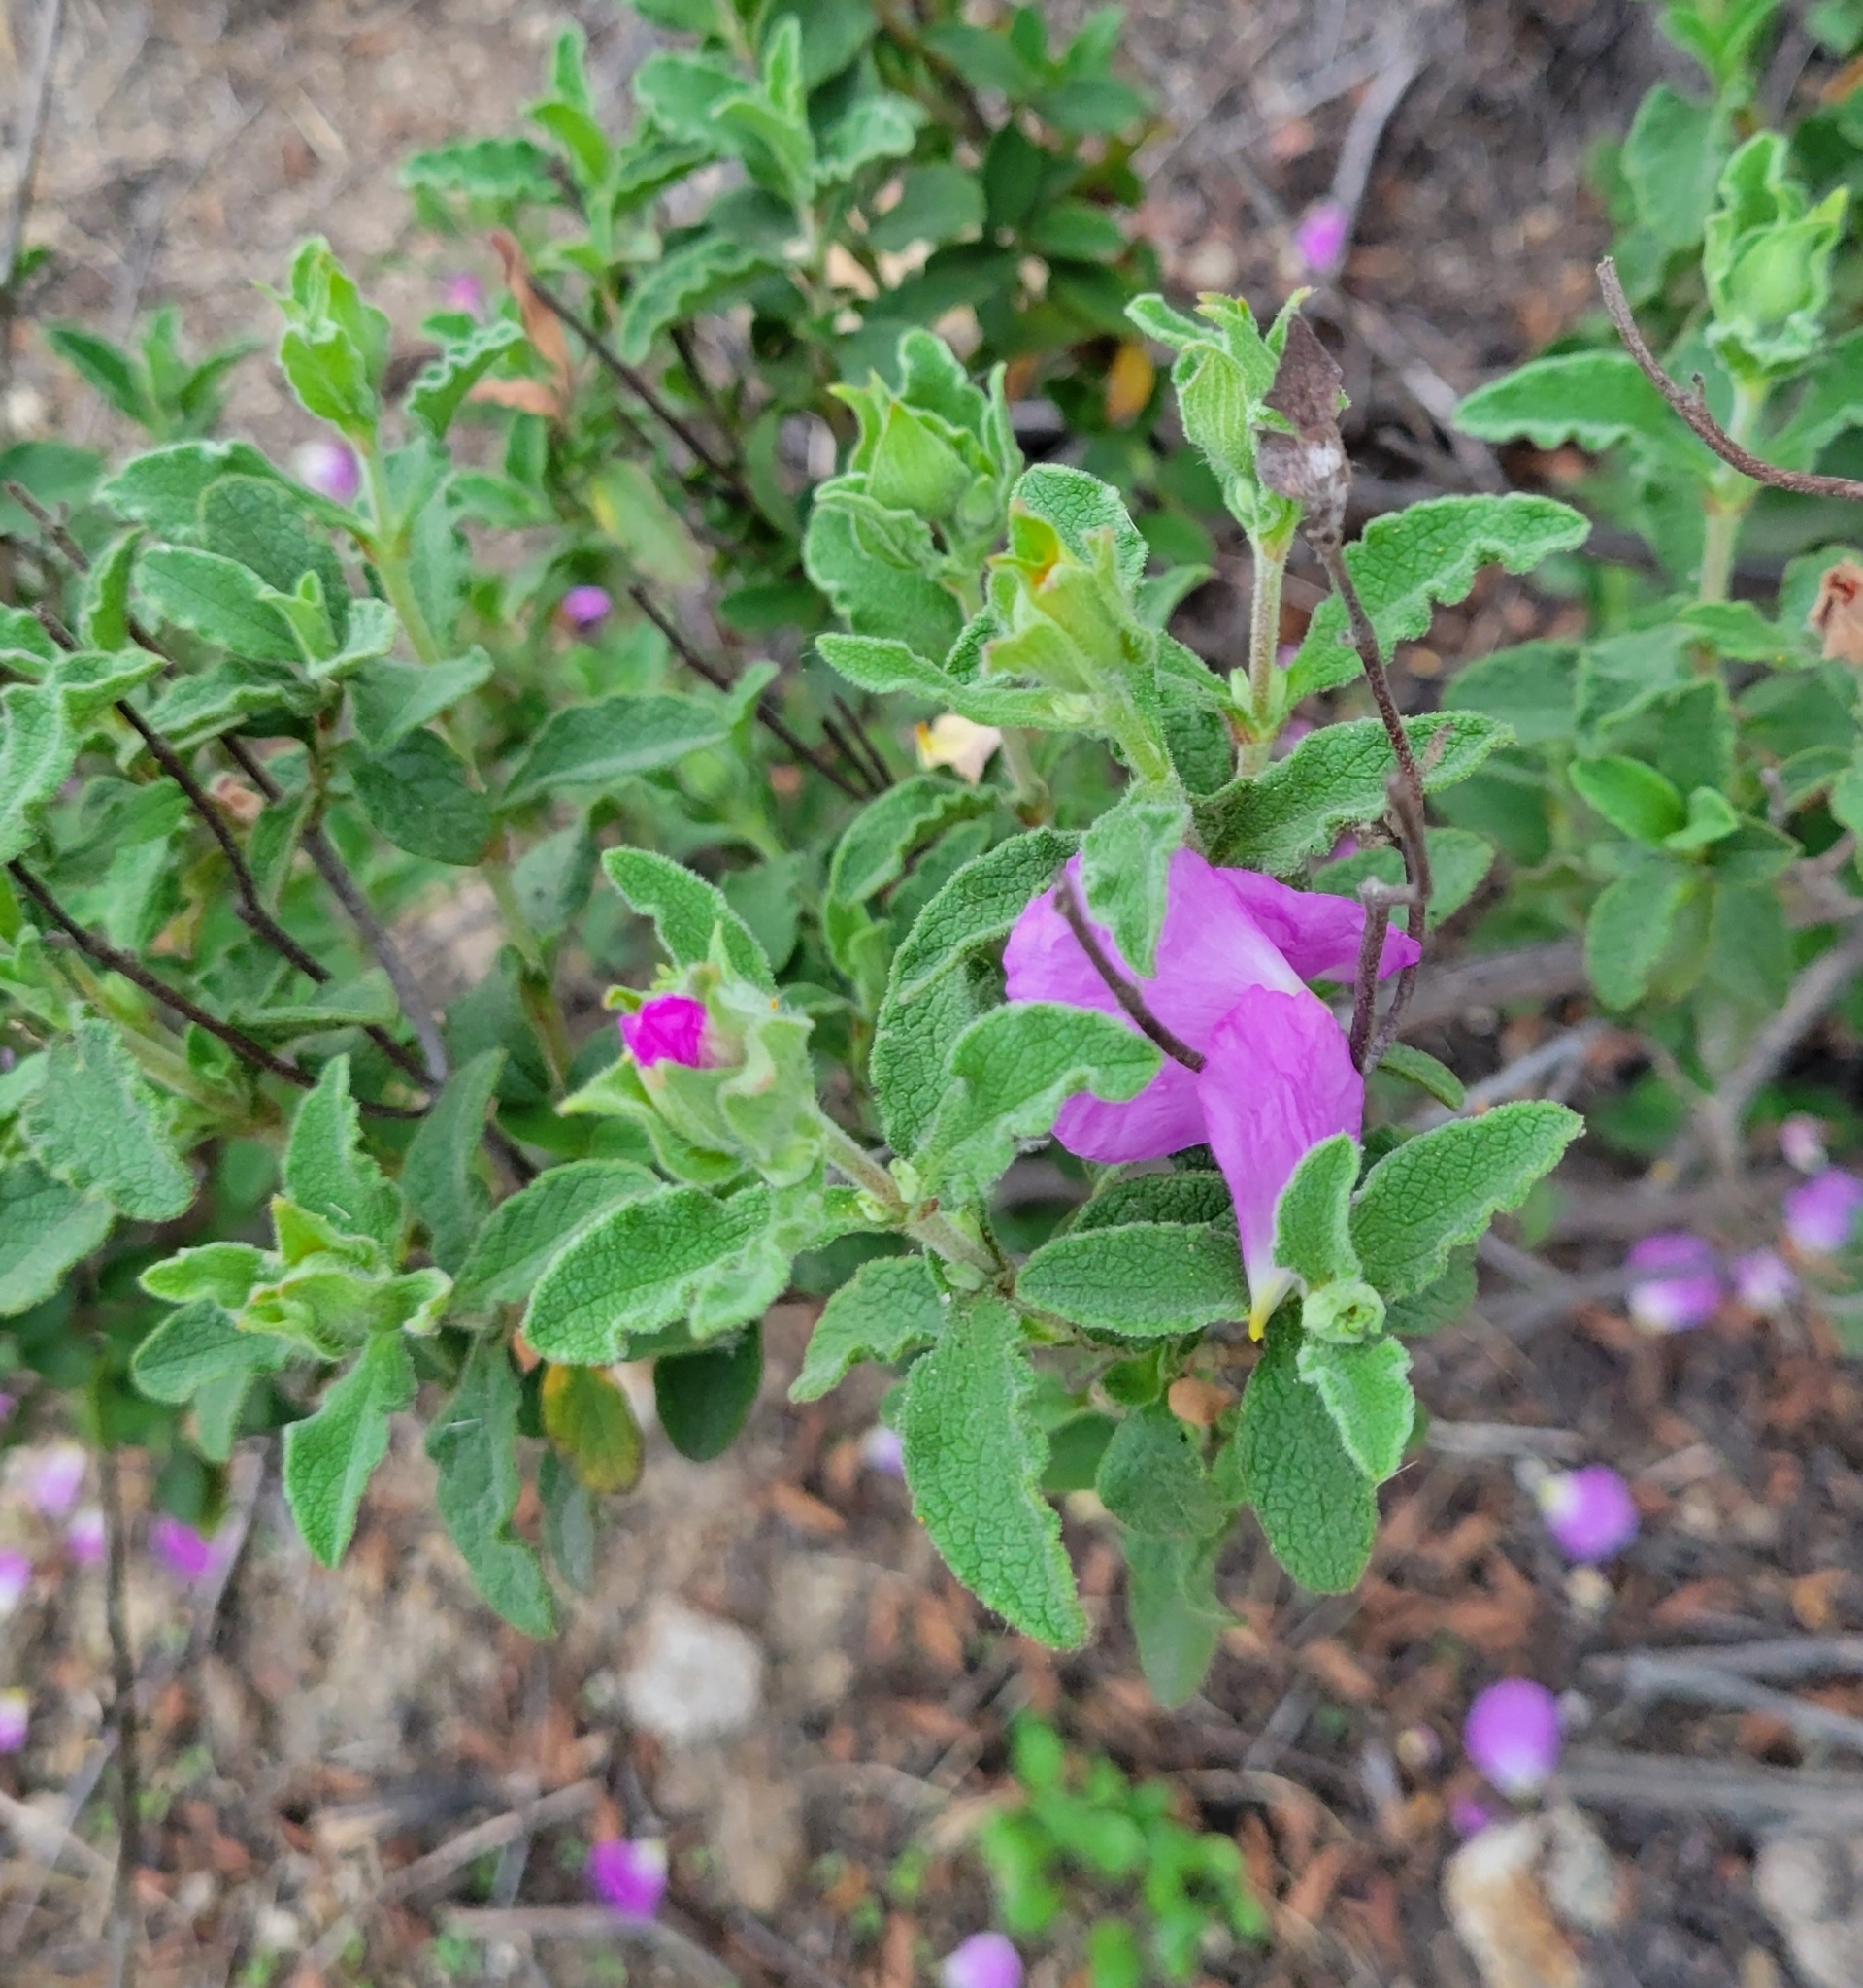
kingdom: Plantae
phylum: Tracheophyta
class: Magnoliopsida
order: Malvales
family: Cistaceae
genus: Cistus
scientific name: Cistus creticus
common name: Cretan rockrose
